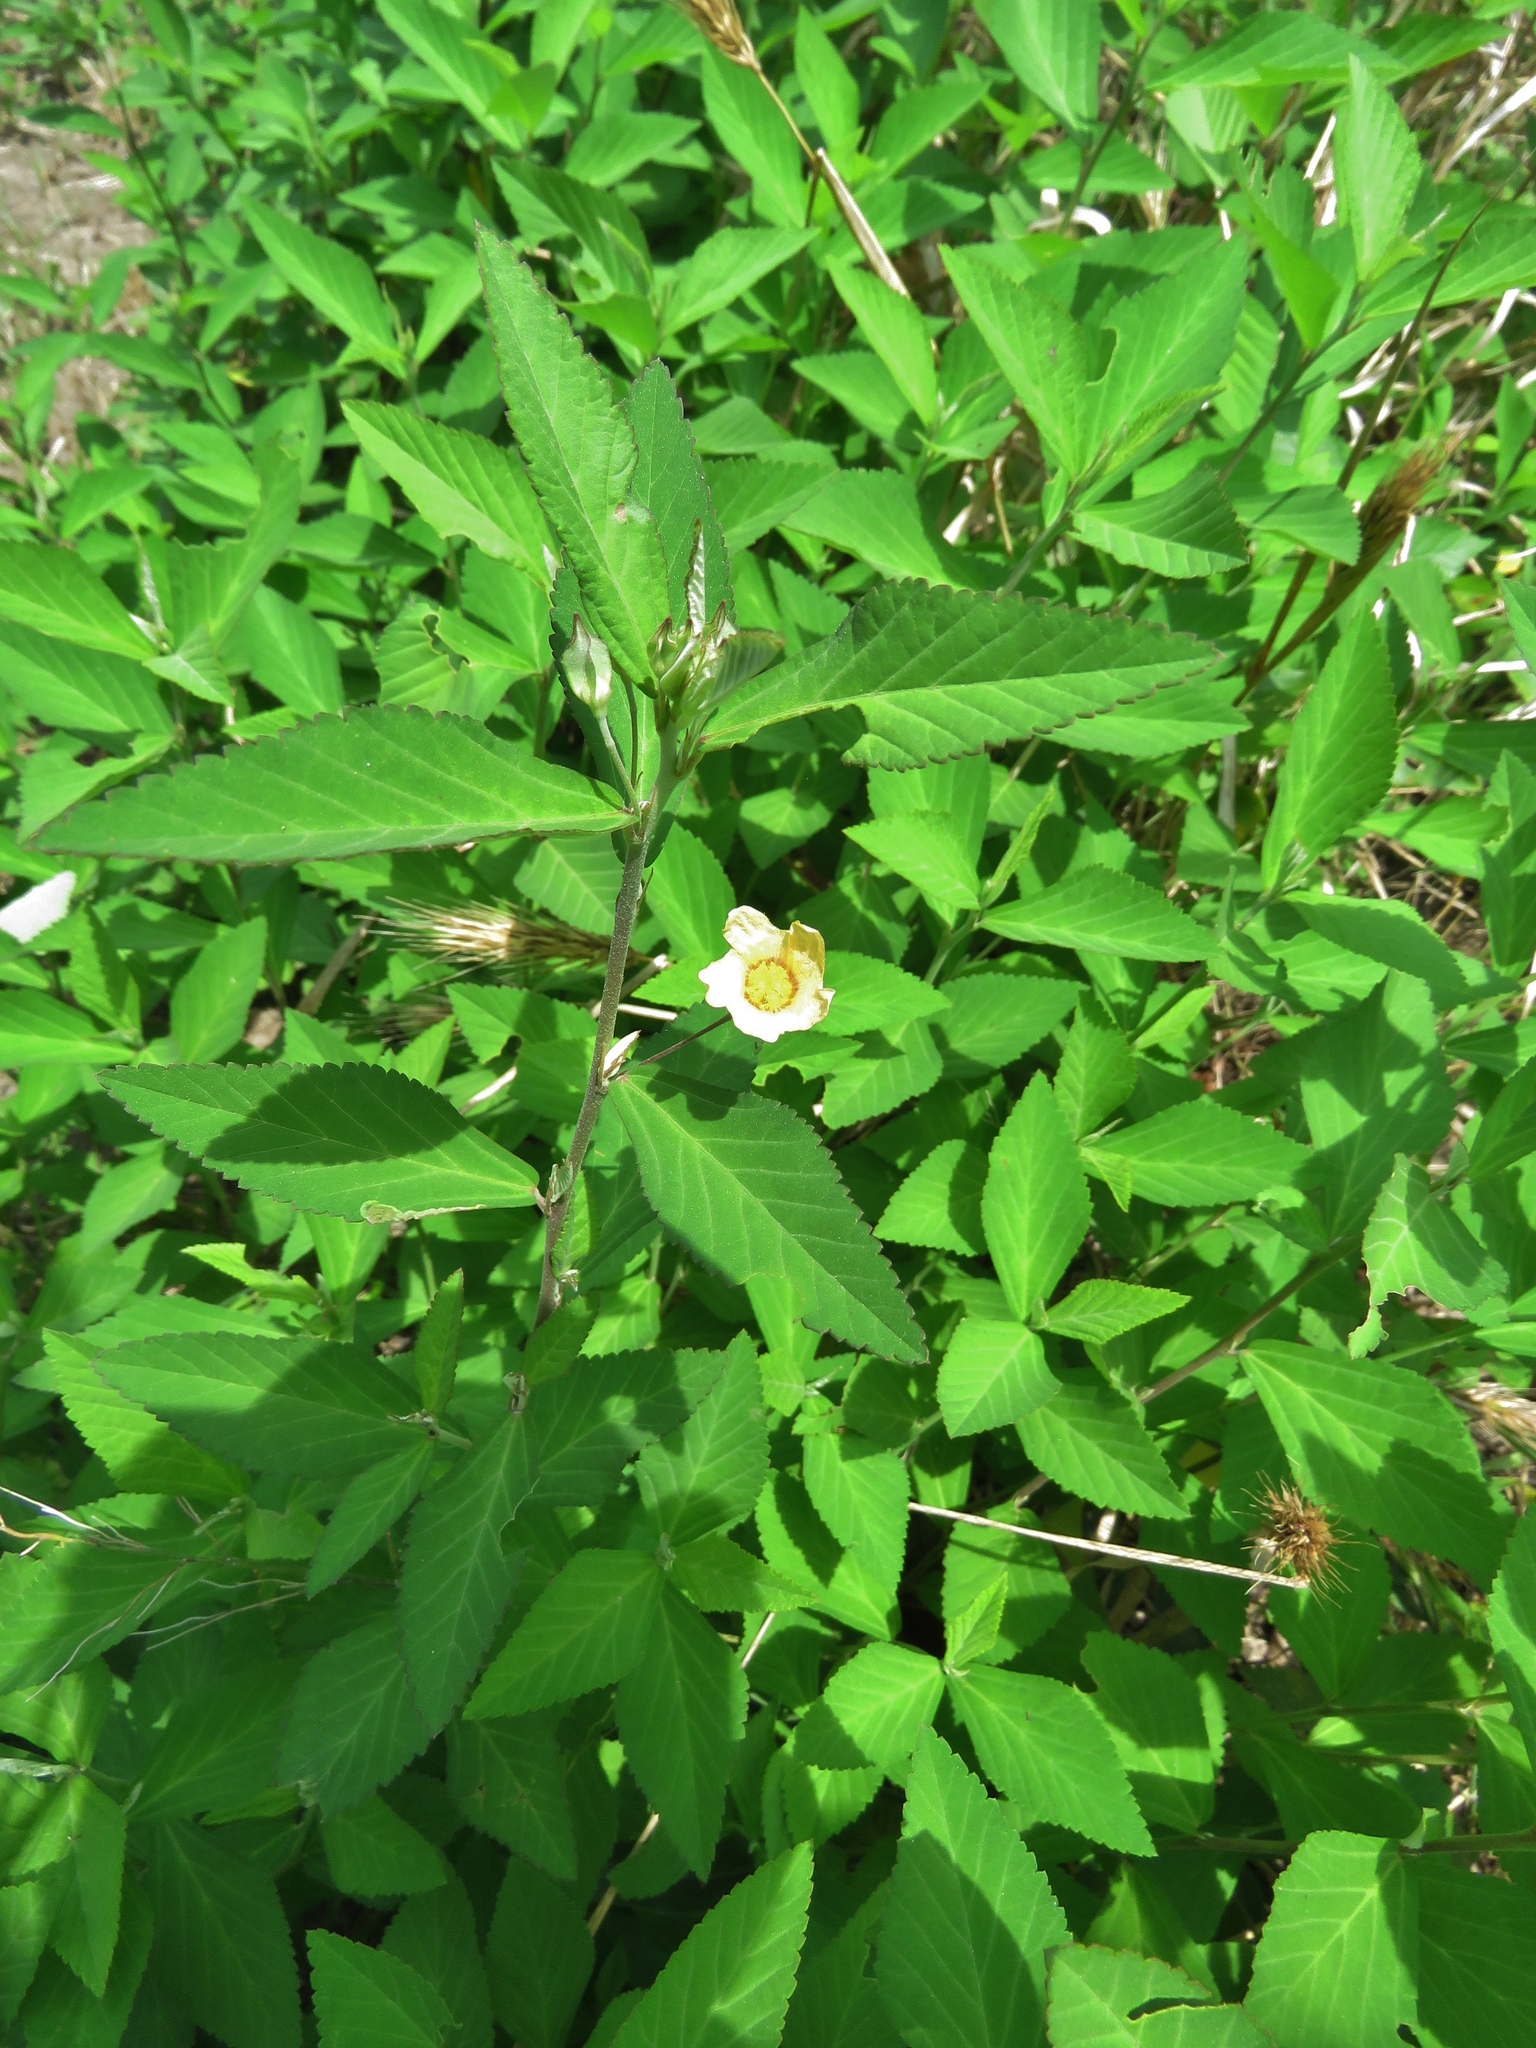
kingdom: Plantae
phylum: Tracheophyta
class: Magnoliopsida
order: Malvales
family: Malvaceae
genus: Sida
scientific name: Sida rhombifolia
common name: Queensland-hemp
